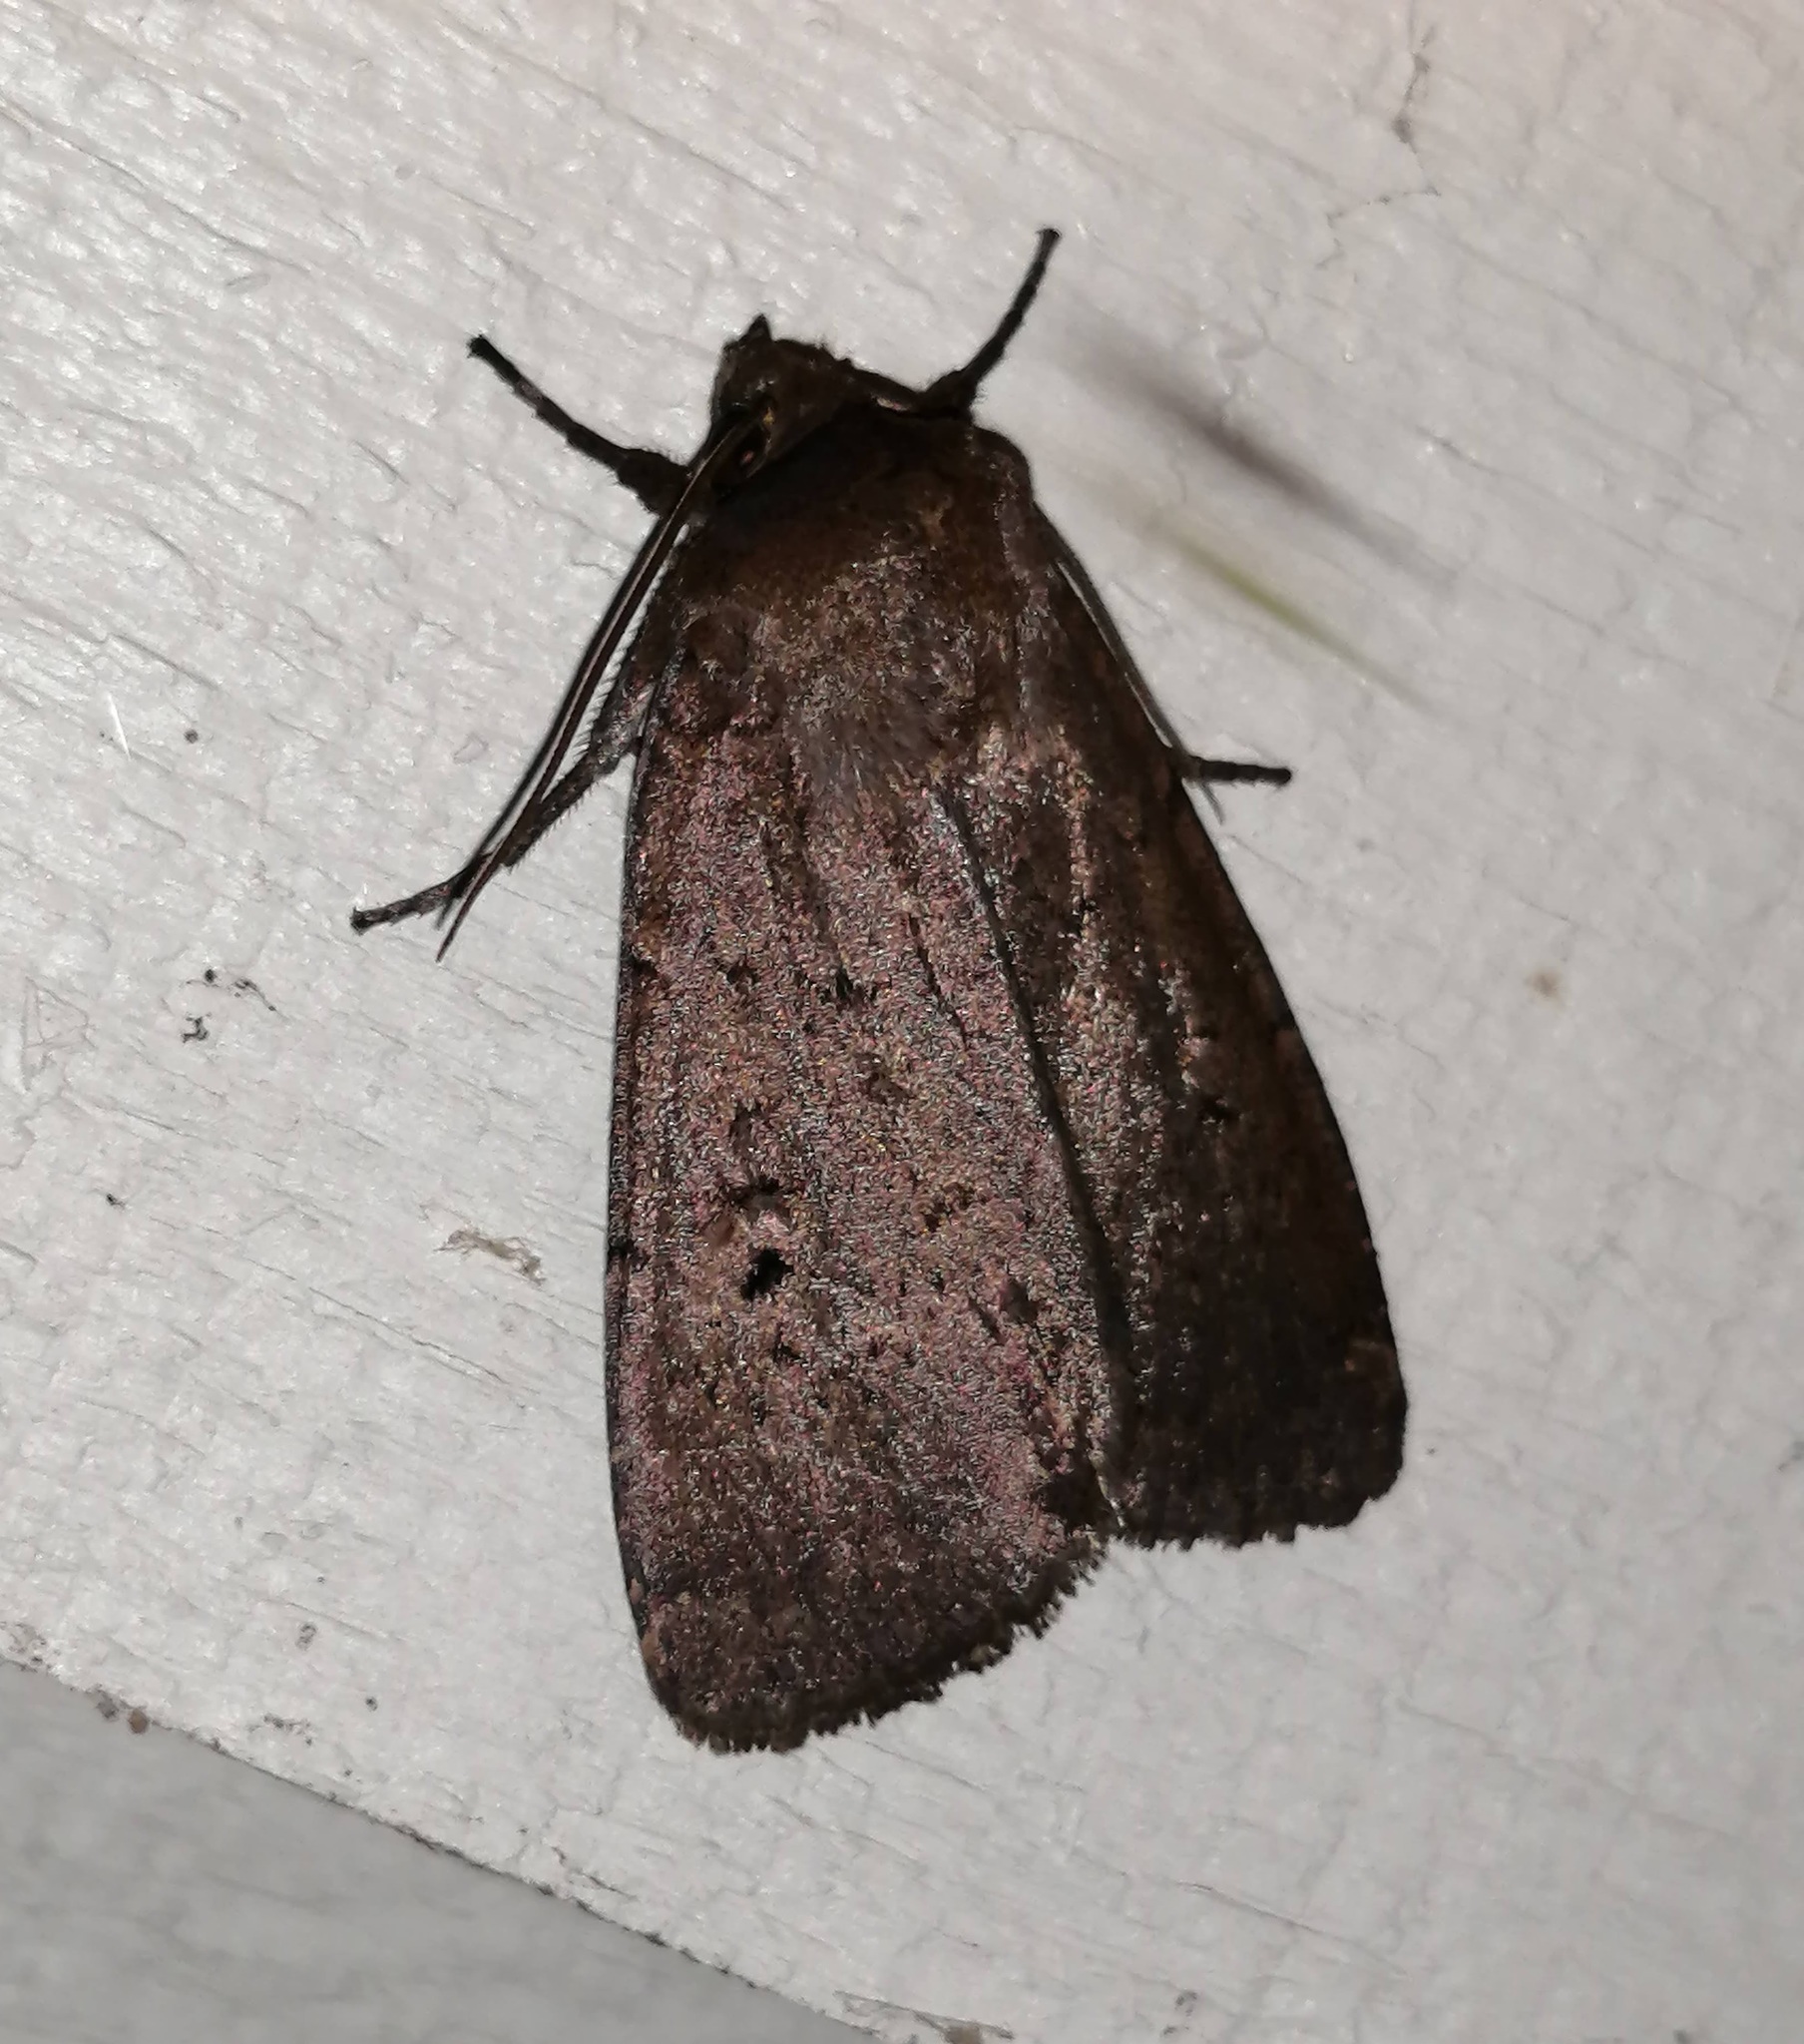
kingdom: Animalia
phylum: Arthropoda
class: Insecta
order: Lepidoptera
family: Noctuidae
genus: Graphiphora
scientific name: Graphiphora augur
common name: Double dart
